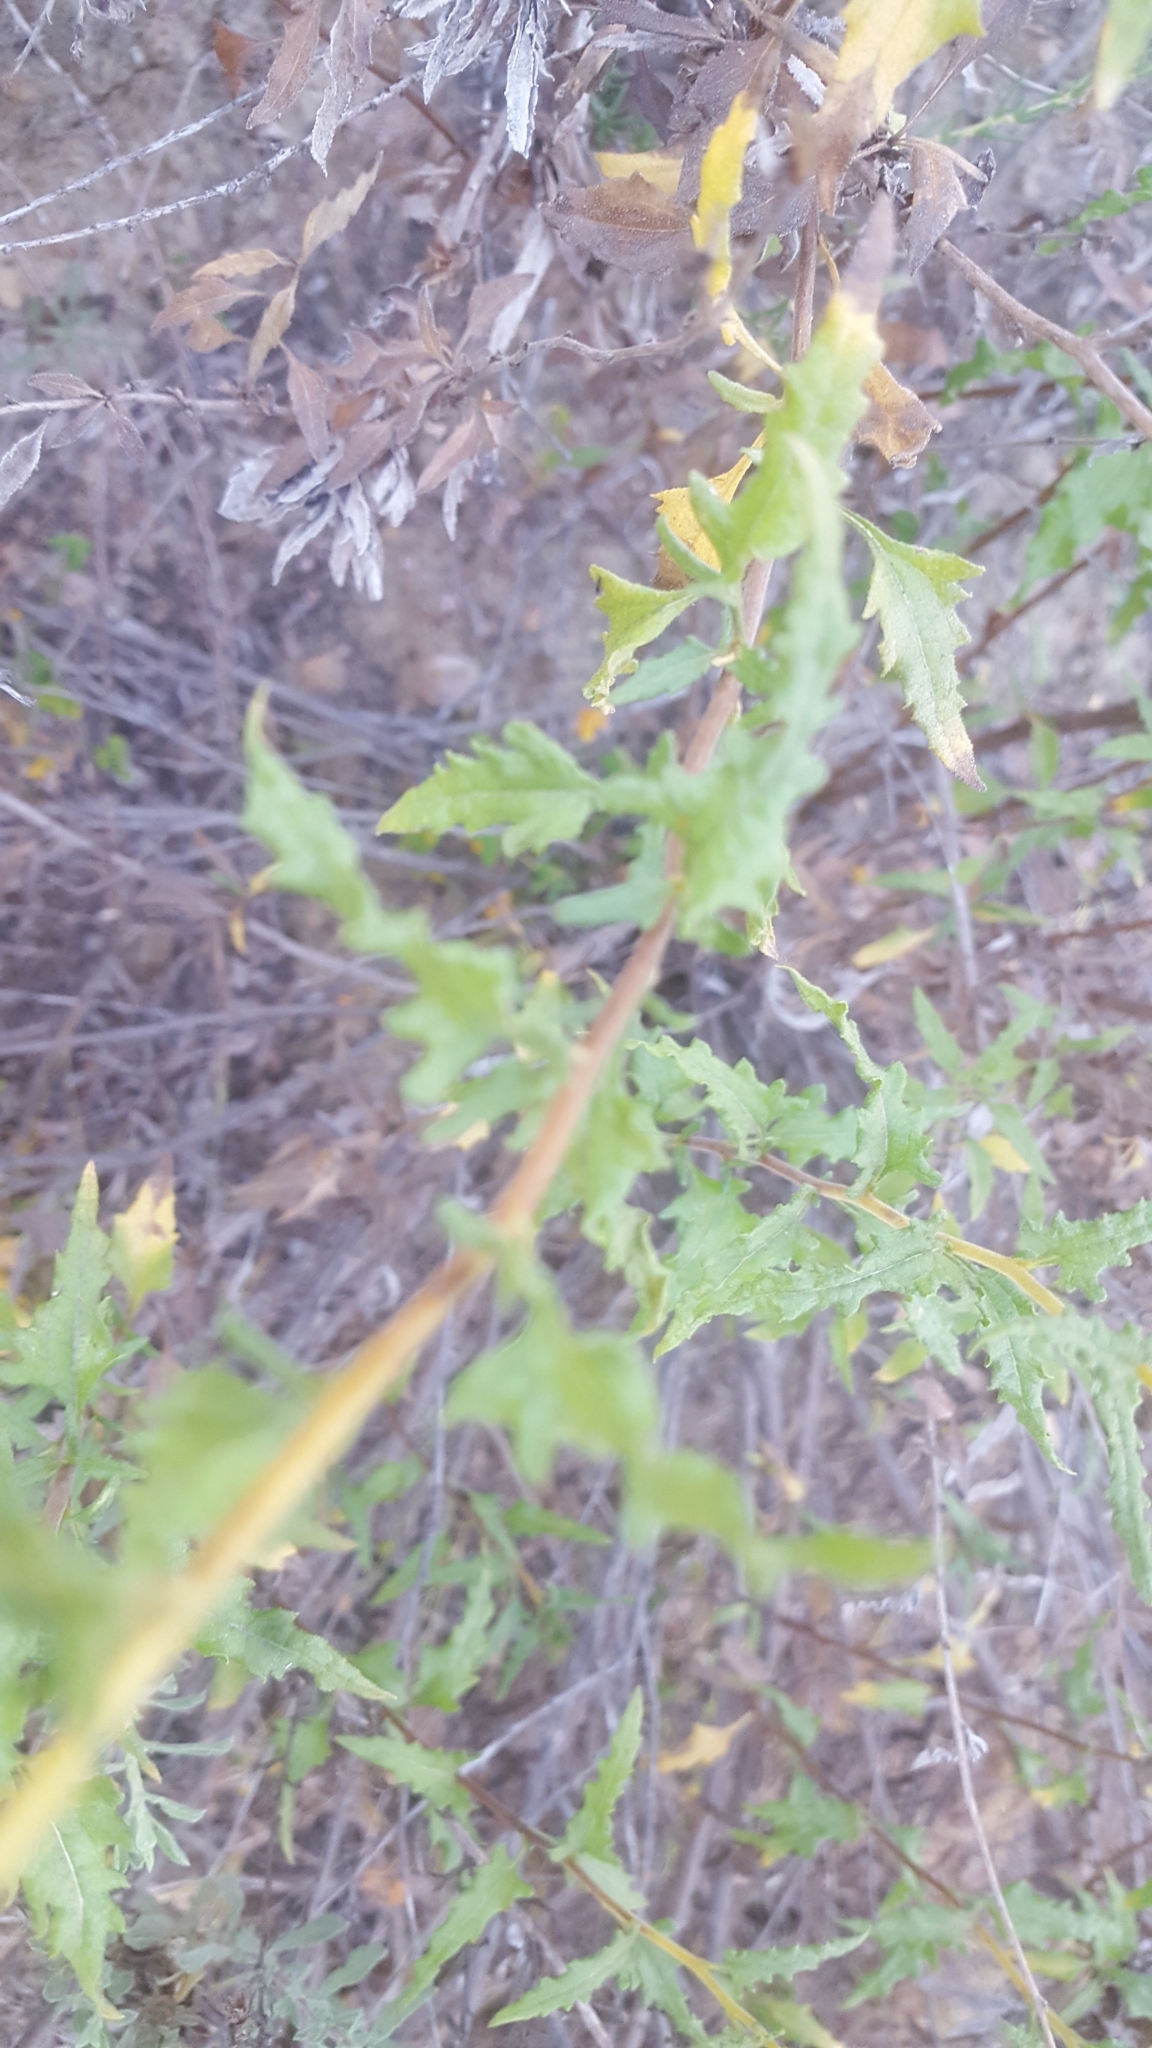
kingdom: Plantae
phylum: Tracheophyta
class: Magnoliopsida
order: Asterales
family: Asteraceae
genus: Bahiopsis
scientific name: Bahiopsis laciniata
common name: San diego county viguiera
